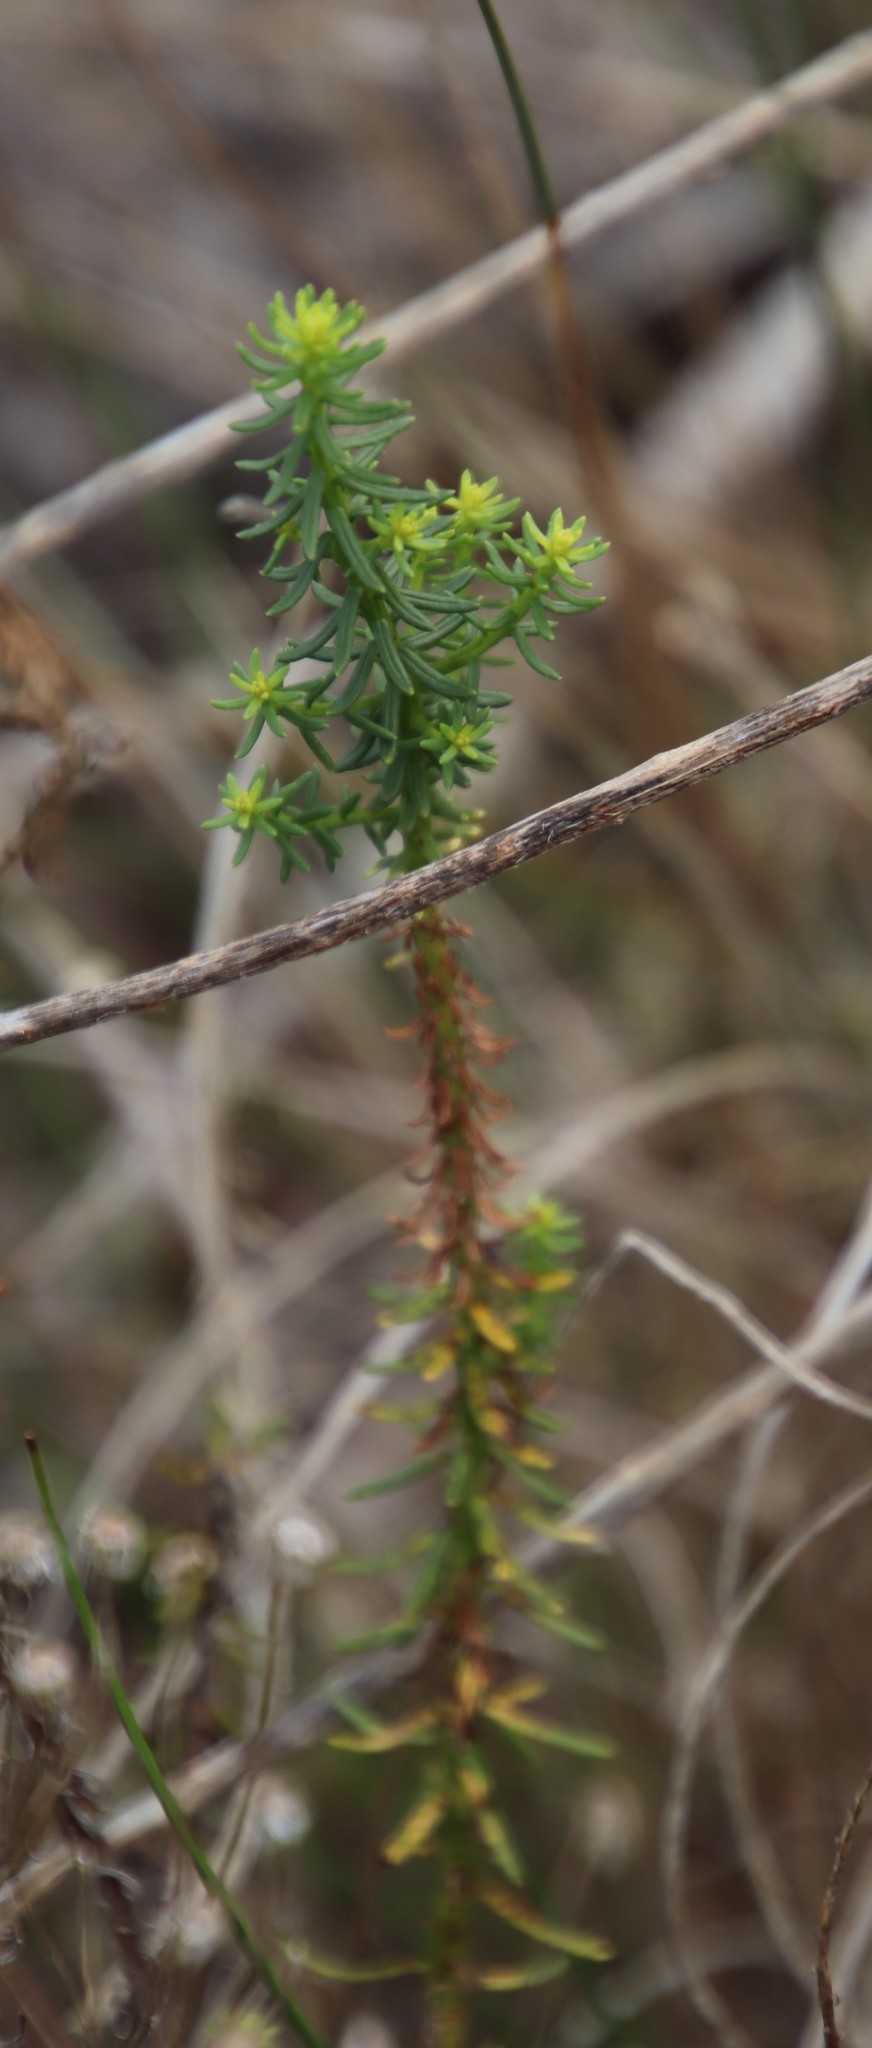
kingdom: Plantae
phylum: Tracheophyta
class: Magnoliopsida
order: Asterales
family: Asteraceae
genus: Chrysocoma
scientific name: Chrysocoma cernua
